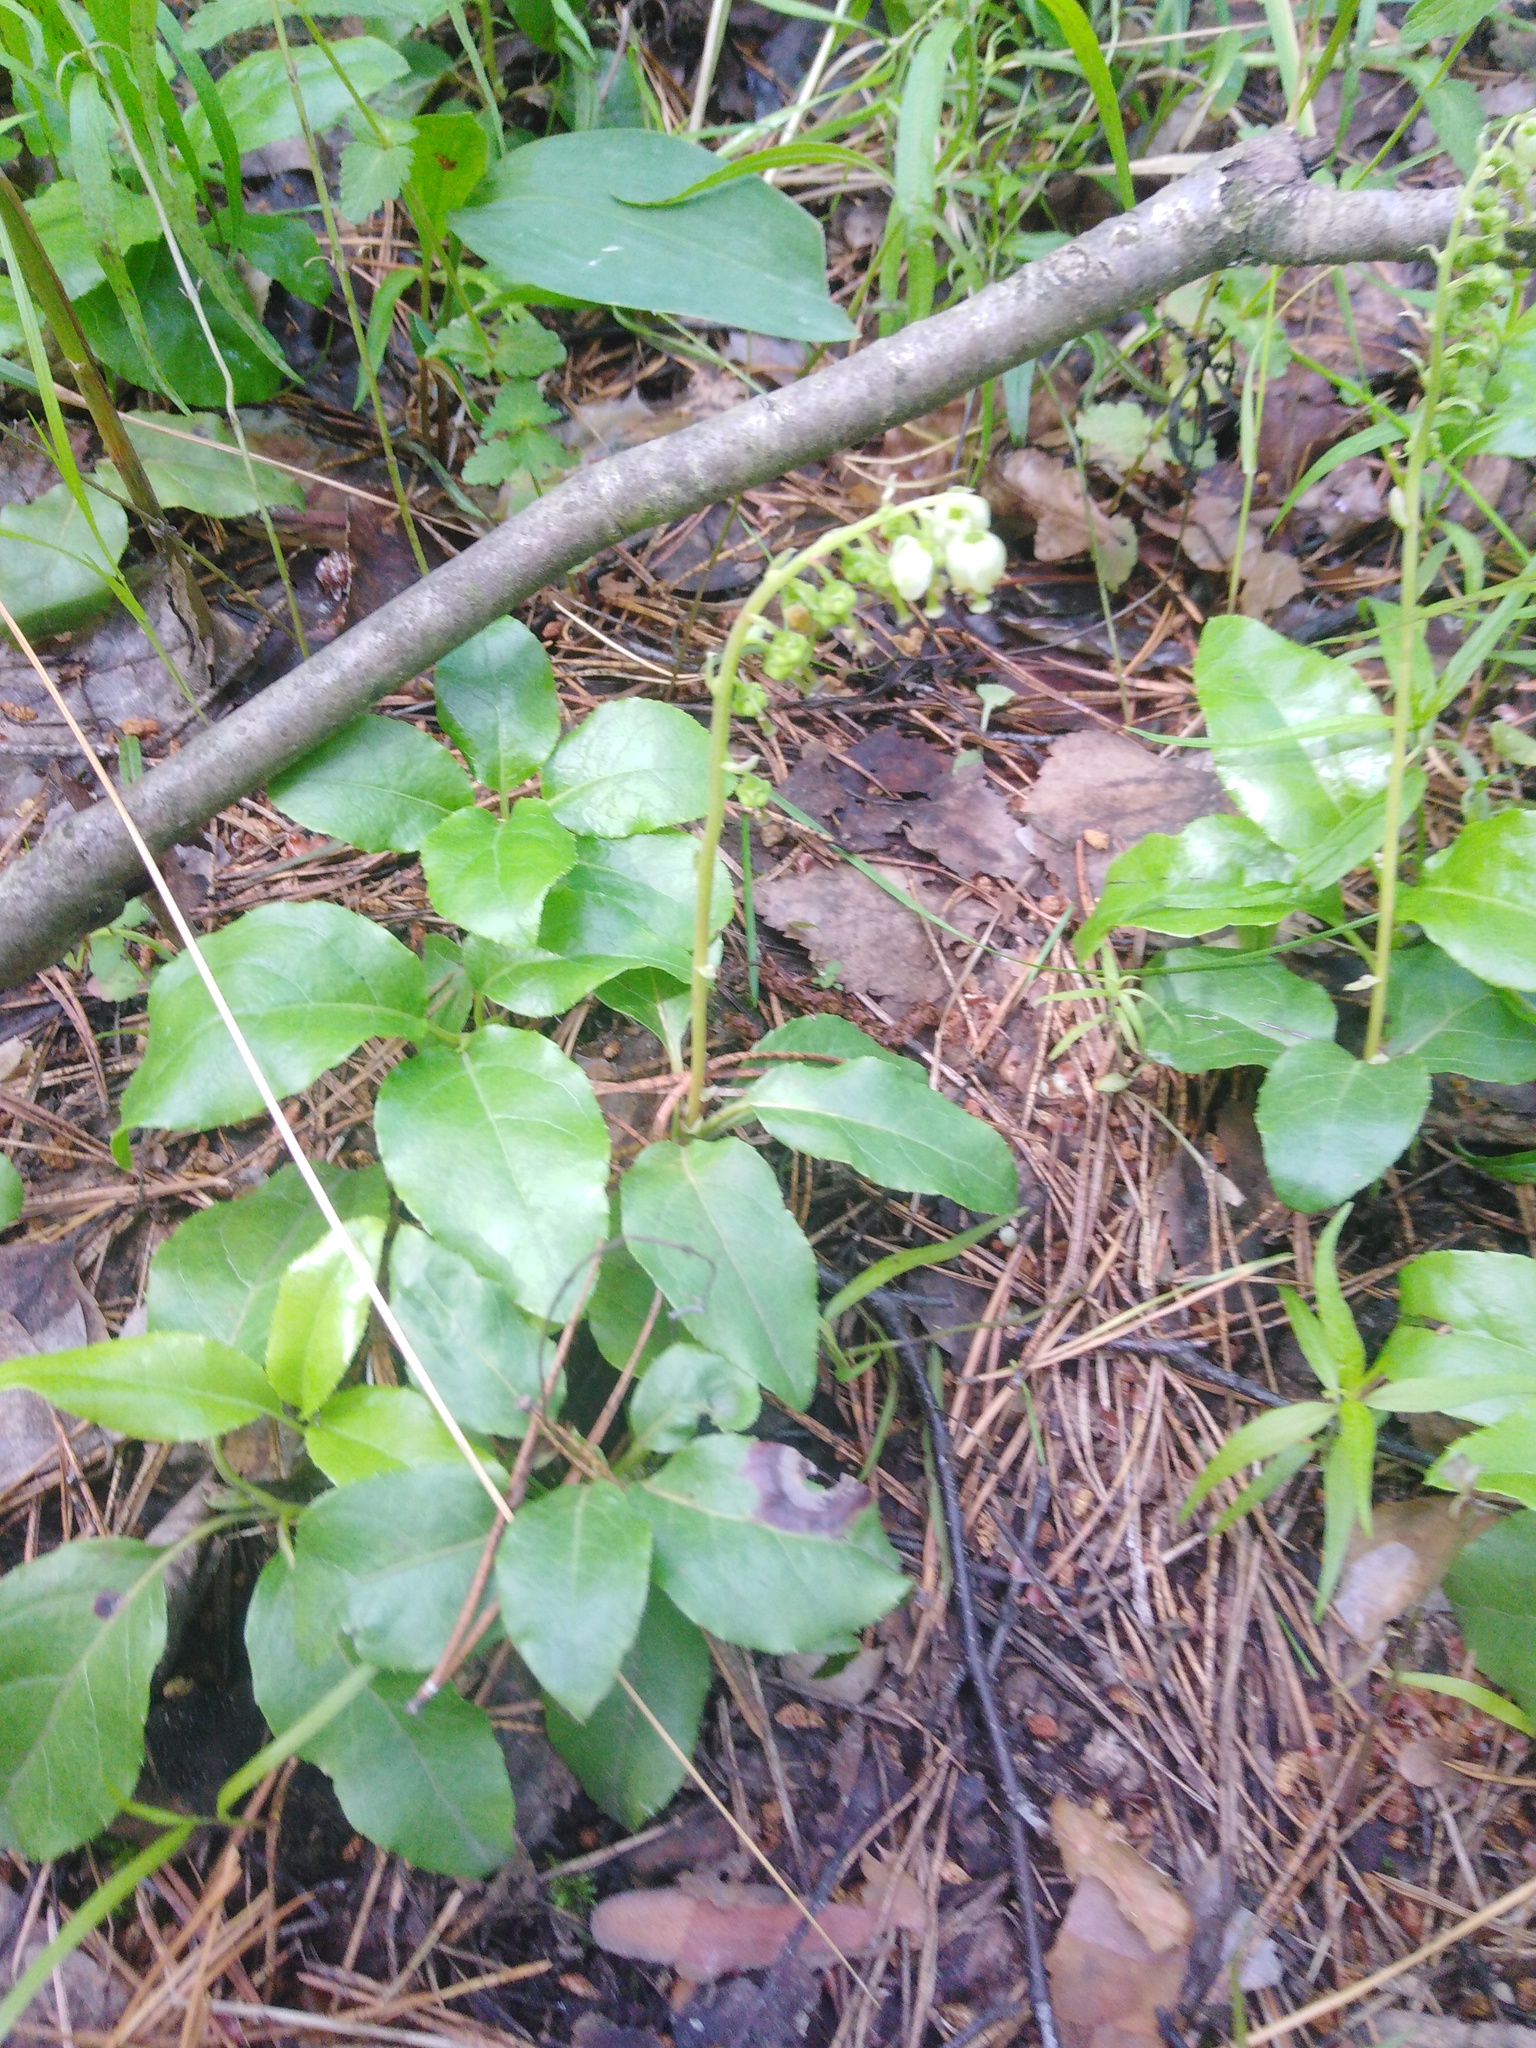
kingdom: Plantae
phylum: Tracheophyta
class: Magnoliopsida
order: Ericales
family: Ericaceae
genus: Orthilia
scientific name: Orthilia secunda
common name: One-sided orthilia
